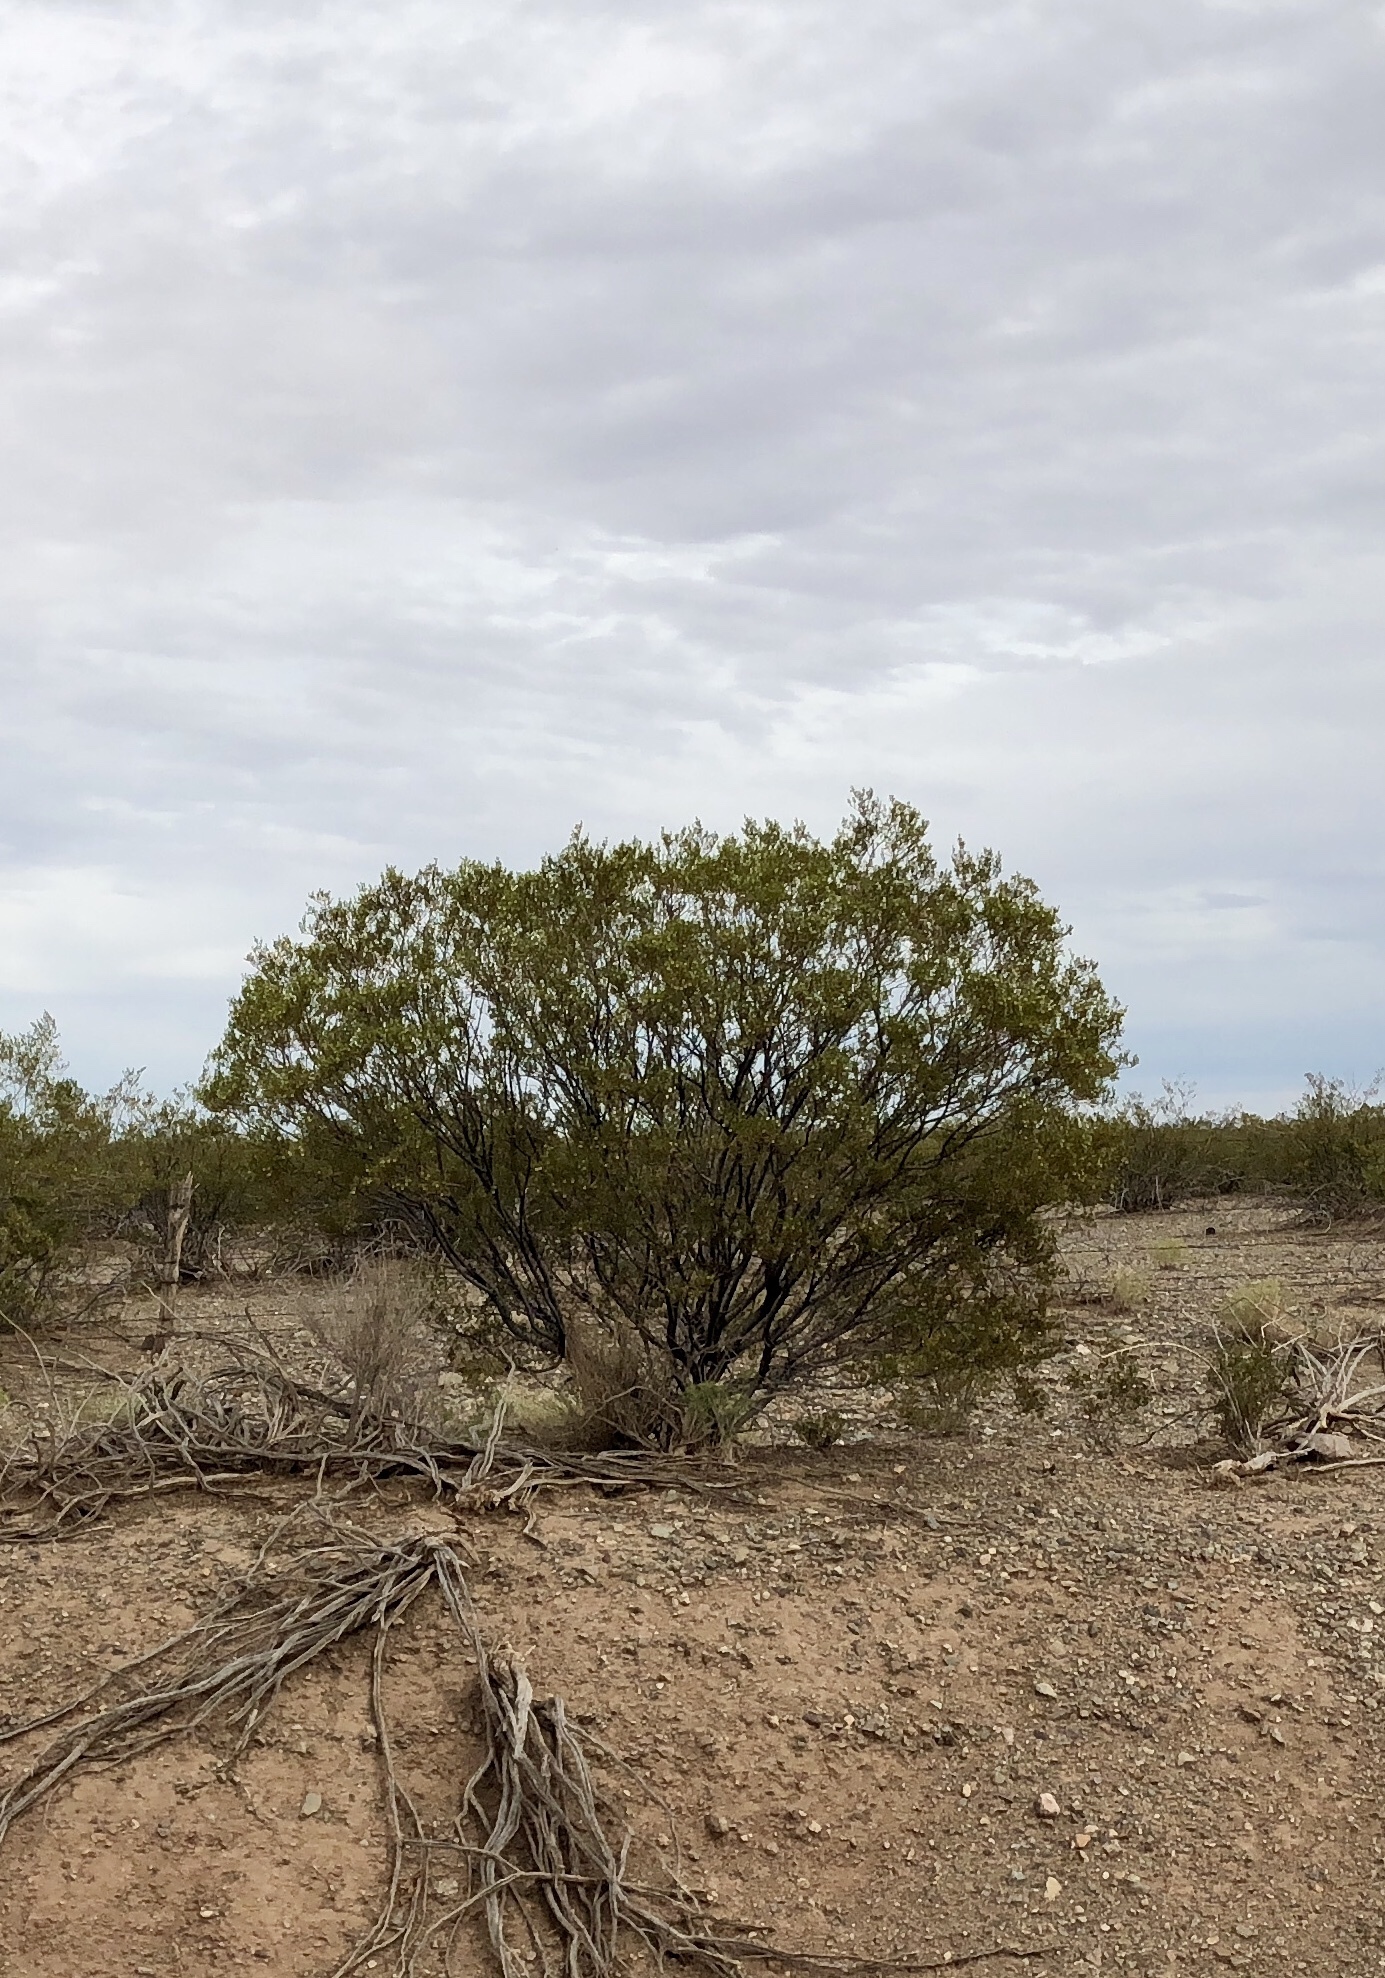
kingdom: Plantae
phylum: Tracheophyta
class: Magnoliopsida
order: Zygophyllales
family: Zygophyllaceae
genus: Larrea
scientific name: Larrea tridentata
